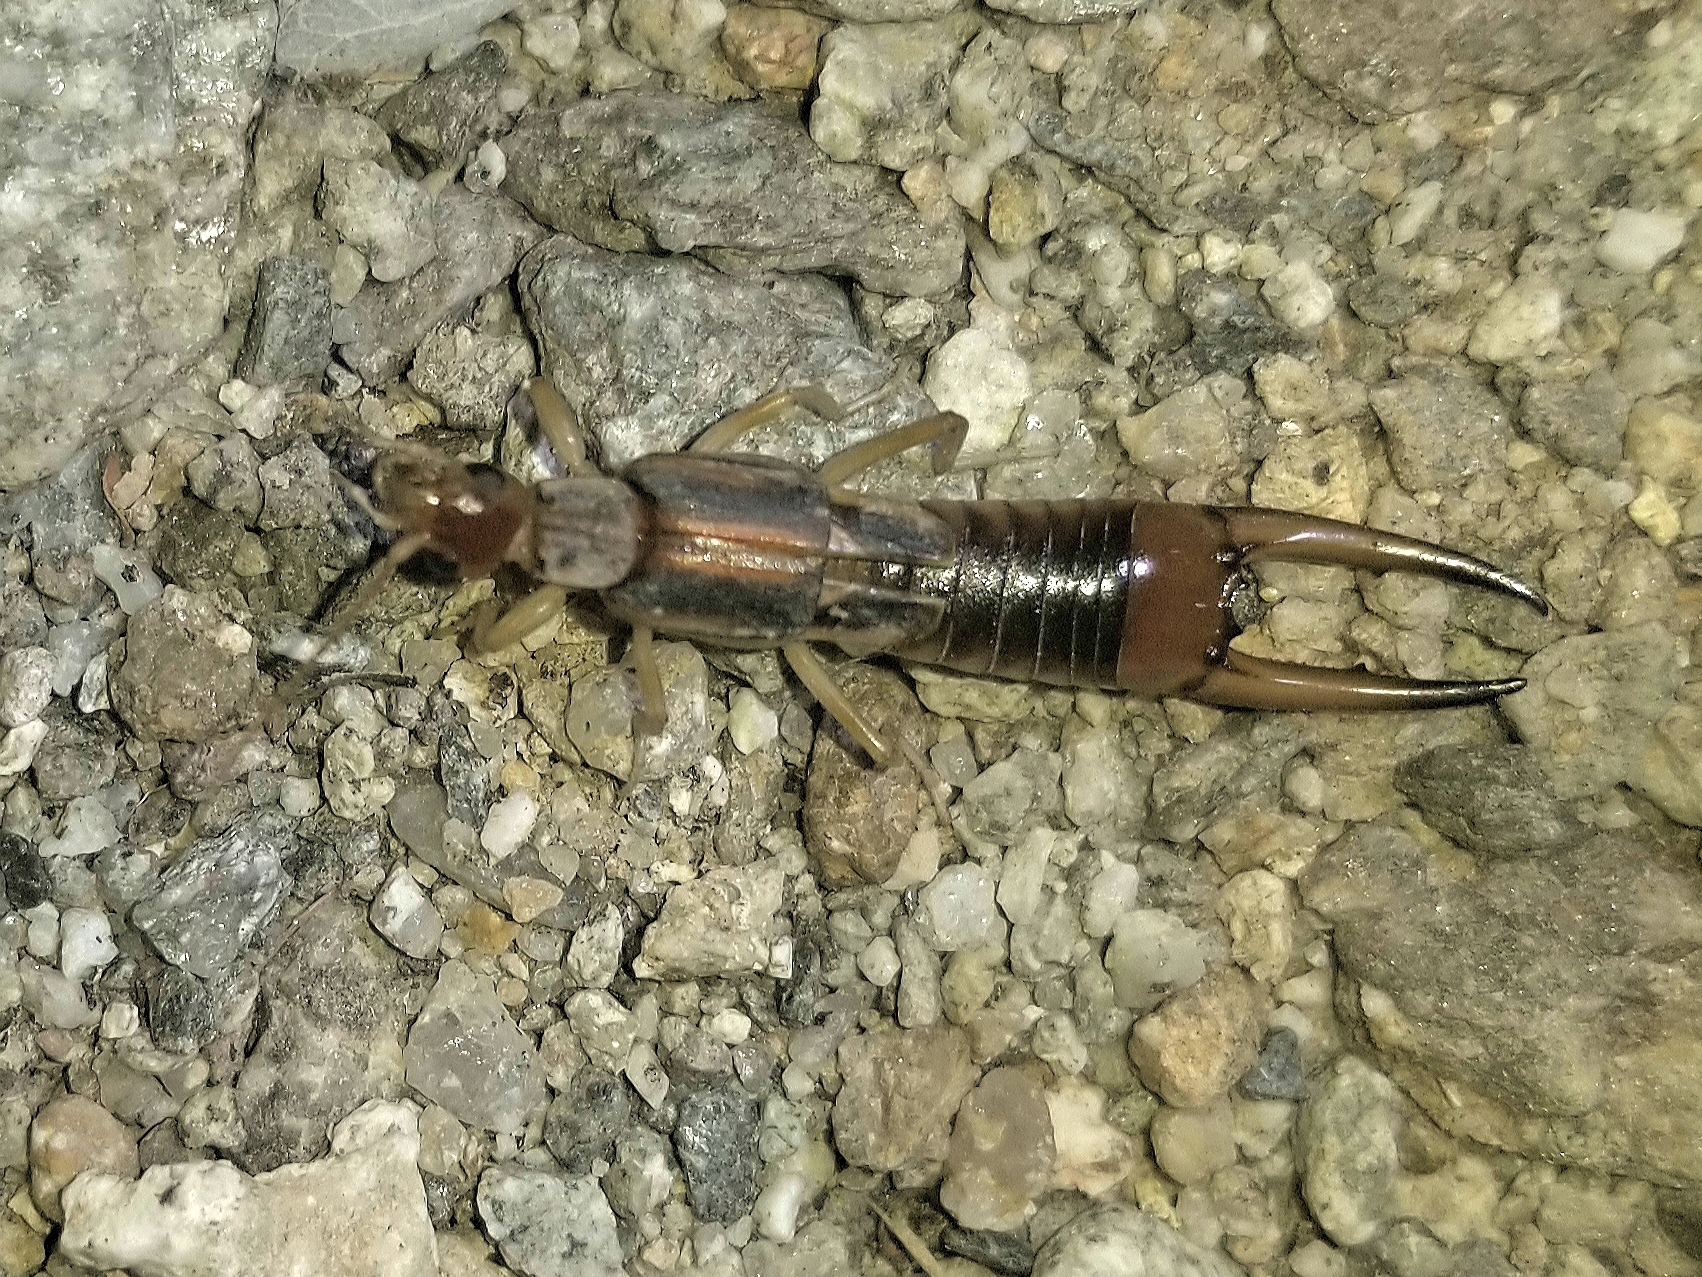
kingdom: Animalia
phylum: Arthropoda
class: Insecta
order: Dermaptera
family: Labiduridae
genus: Labidura
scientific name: Labidura riparia
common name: Striped earwig
